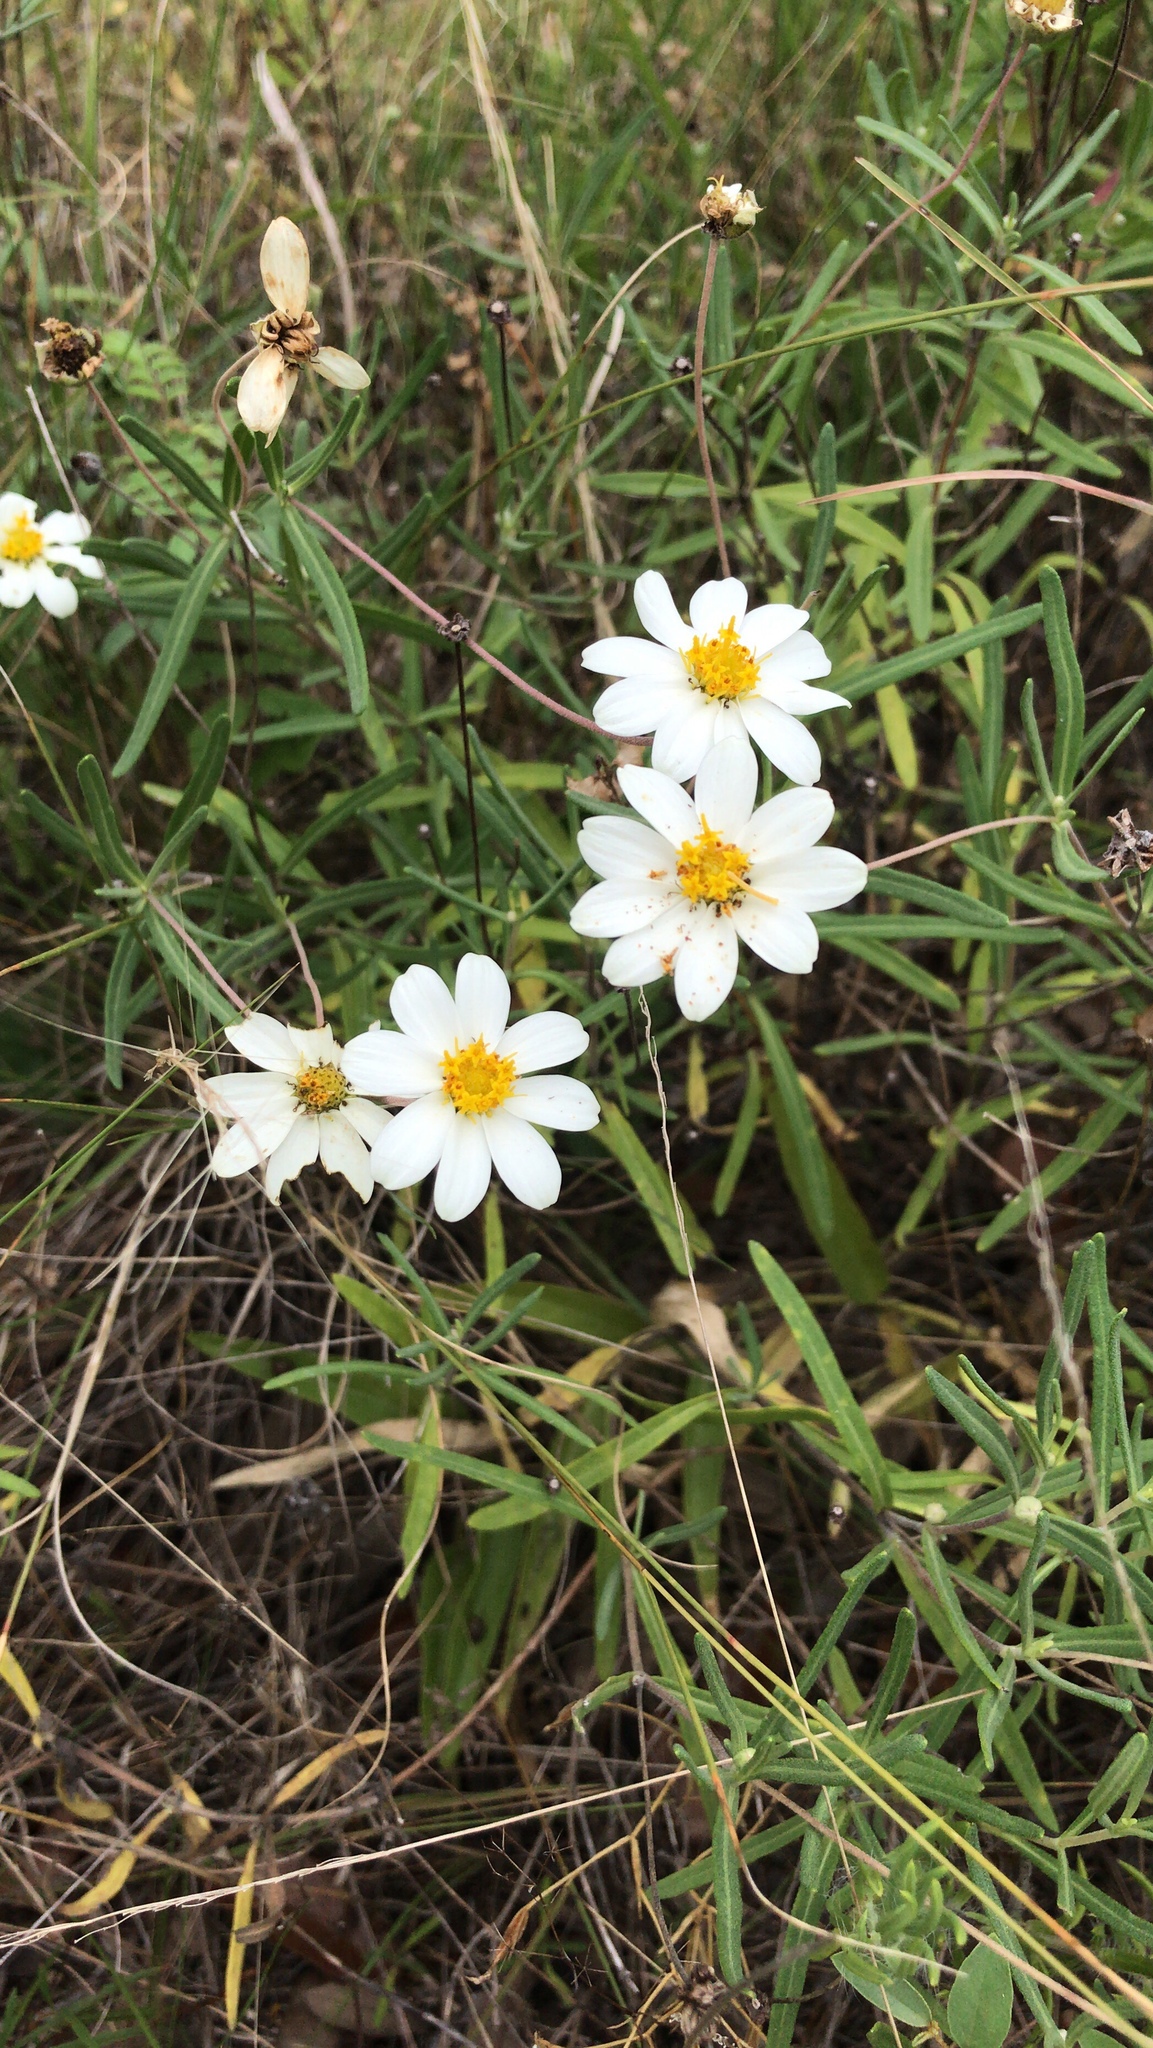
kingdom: Plantae
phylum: Tracheophyta
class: Magnoliopsida
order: Asterales
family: Asteraceae
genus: Melampodium
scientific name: Melampodium leucanthum
